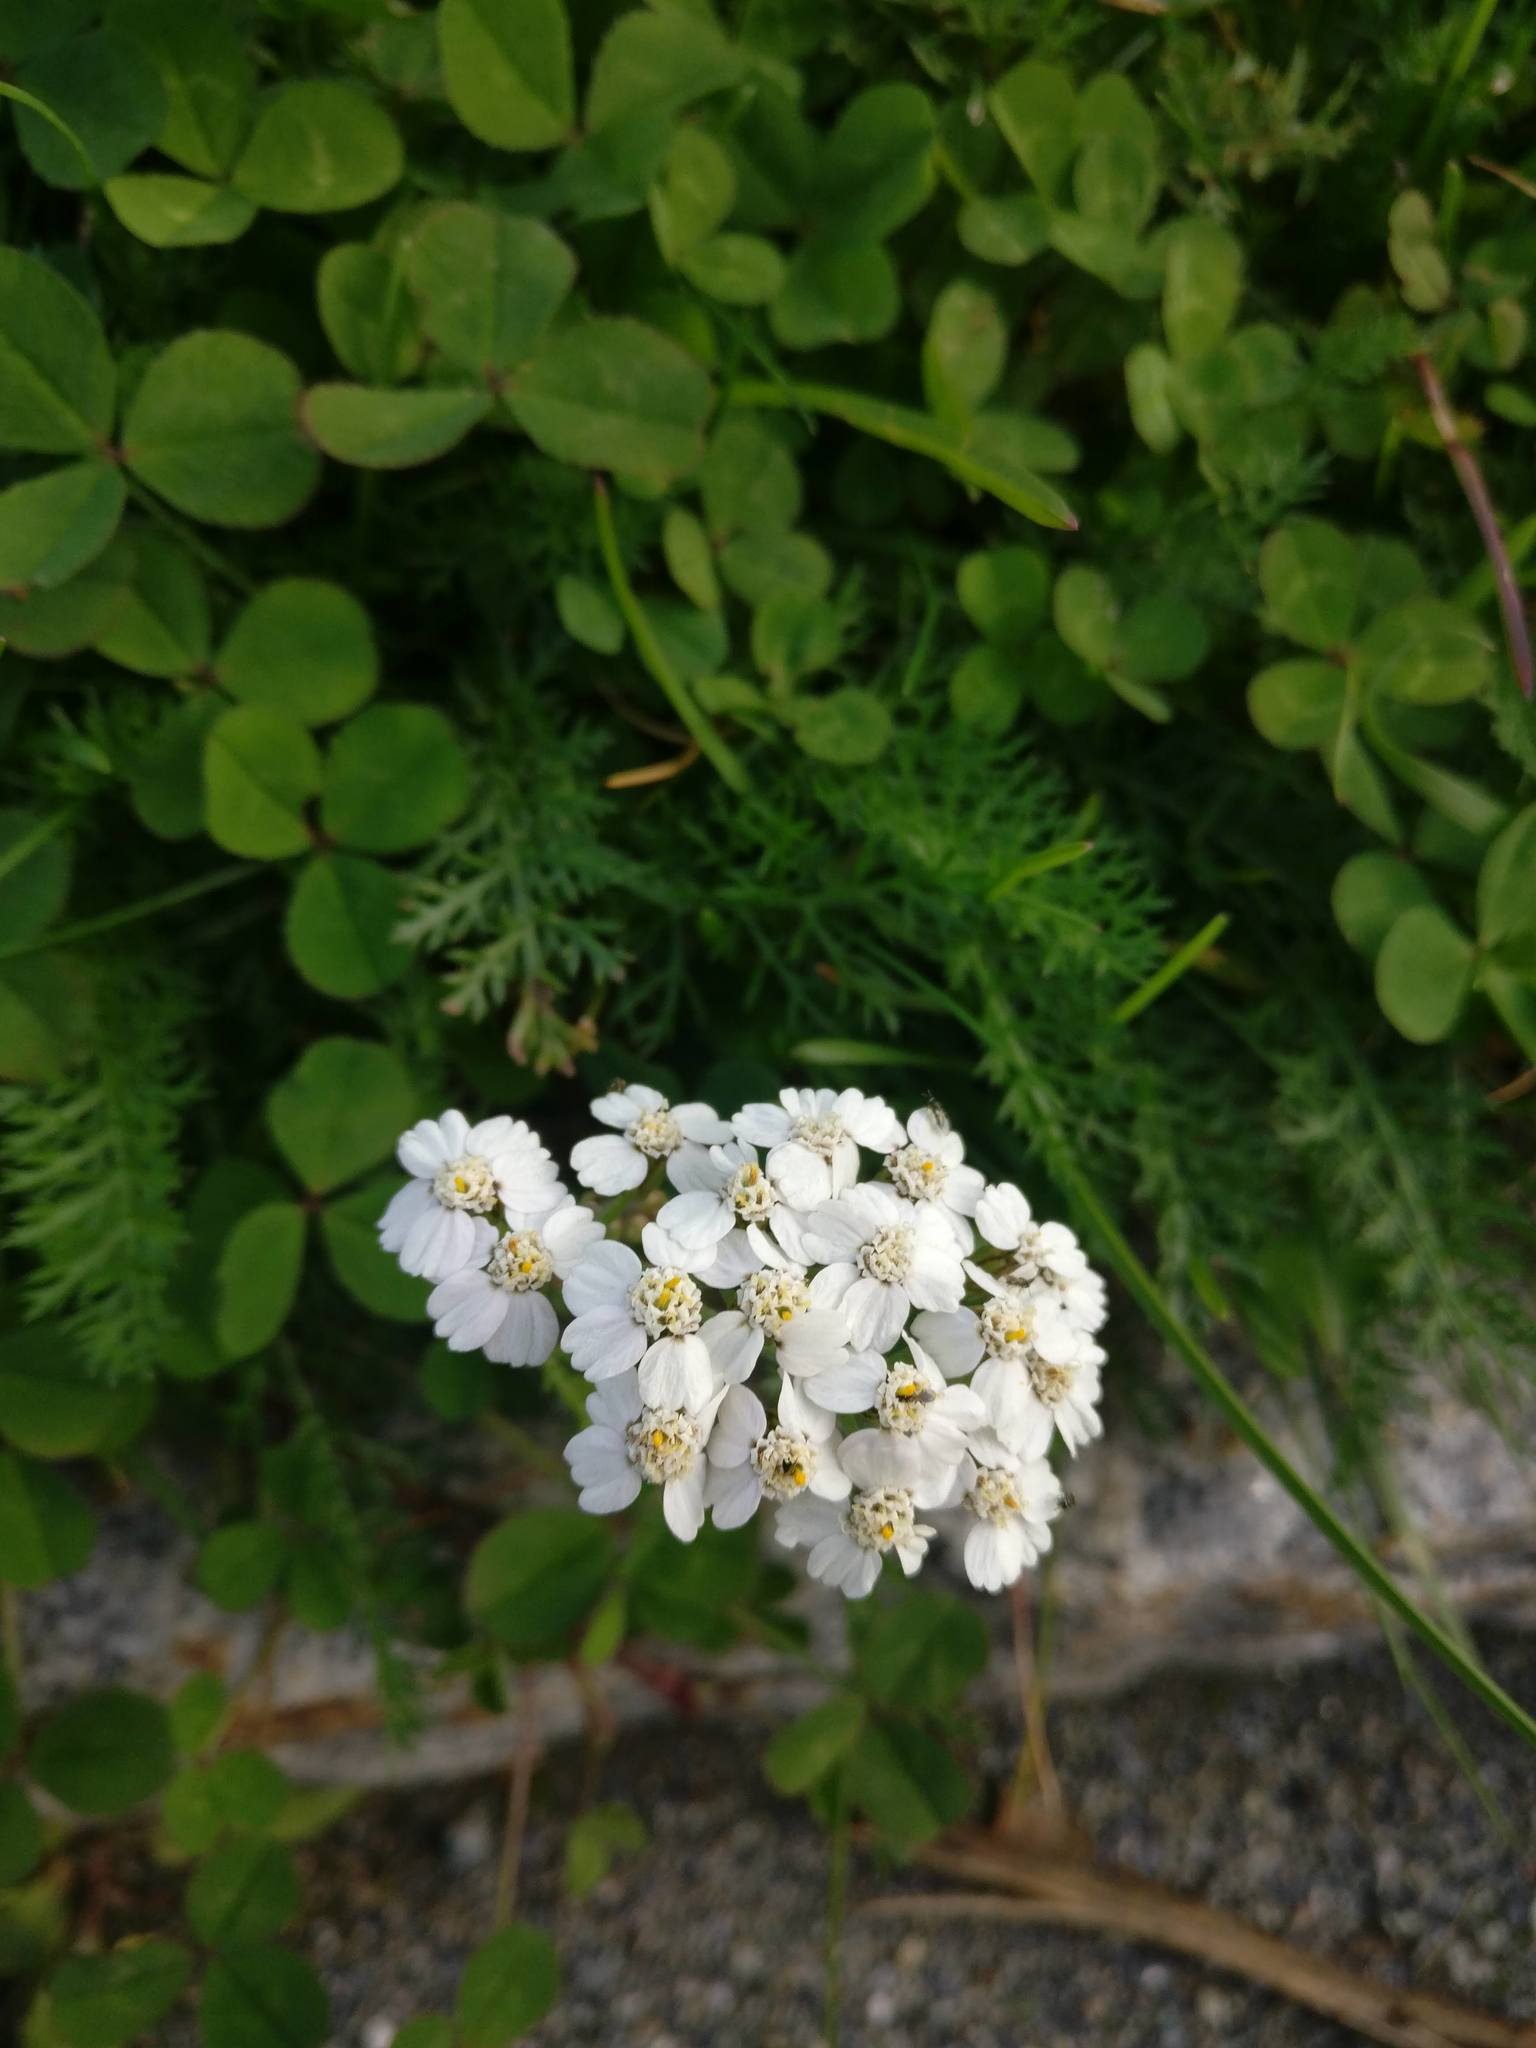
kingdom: Plantae
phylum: Tracheophyta
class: Magnoliopsida
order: Asterales
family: Asteraceae
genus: Achillea
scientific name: Achillea millefolium
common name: Yarrow
